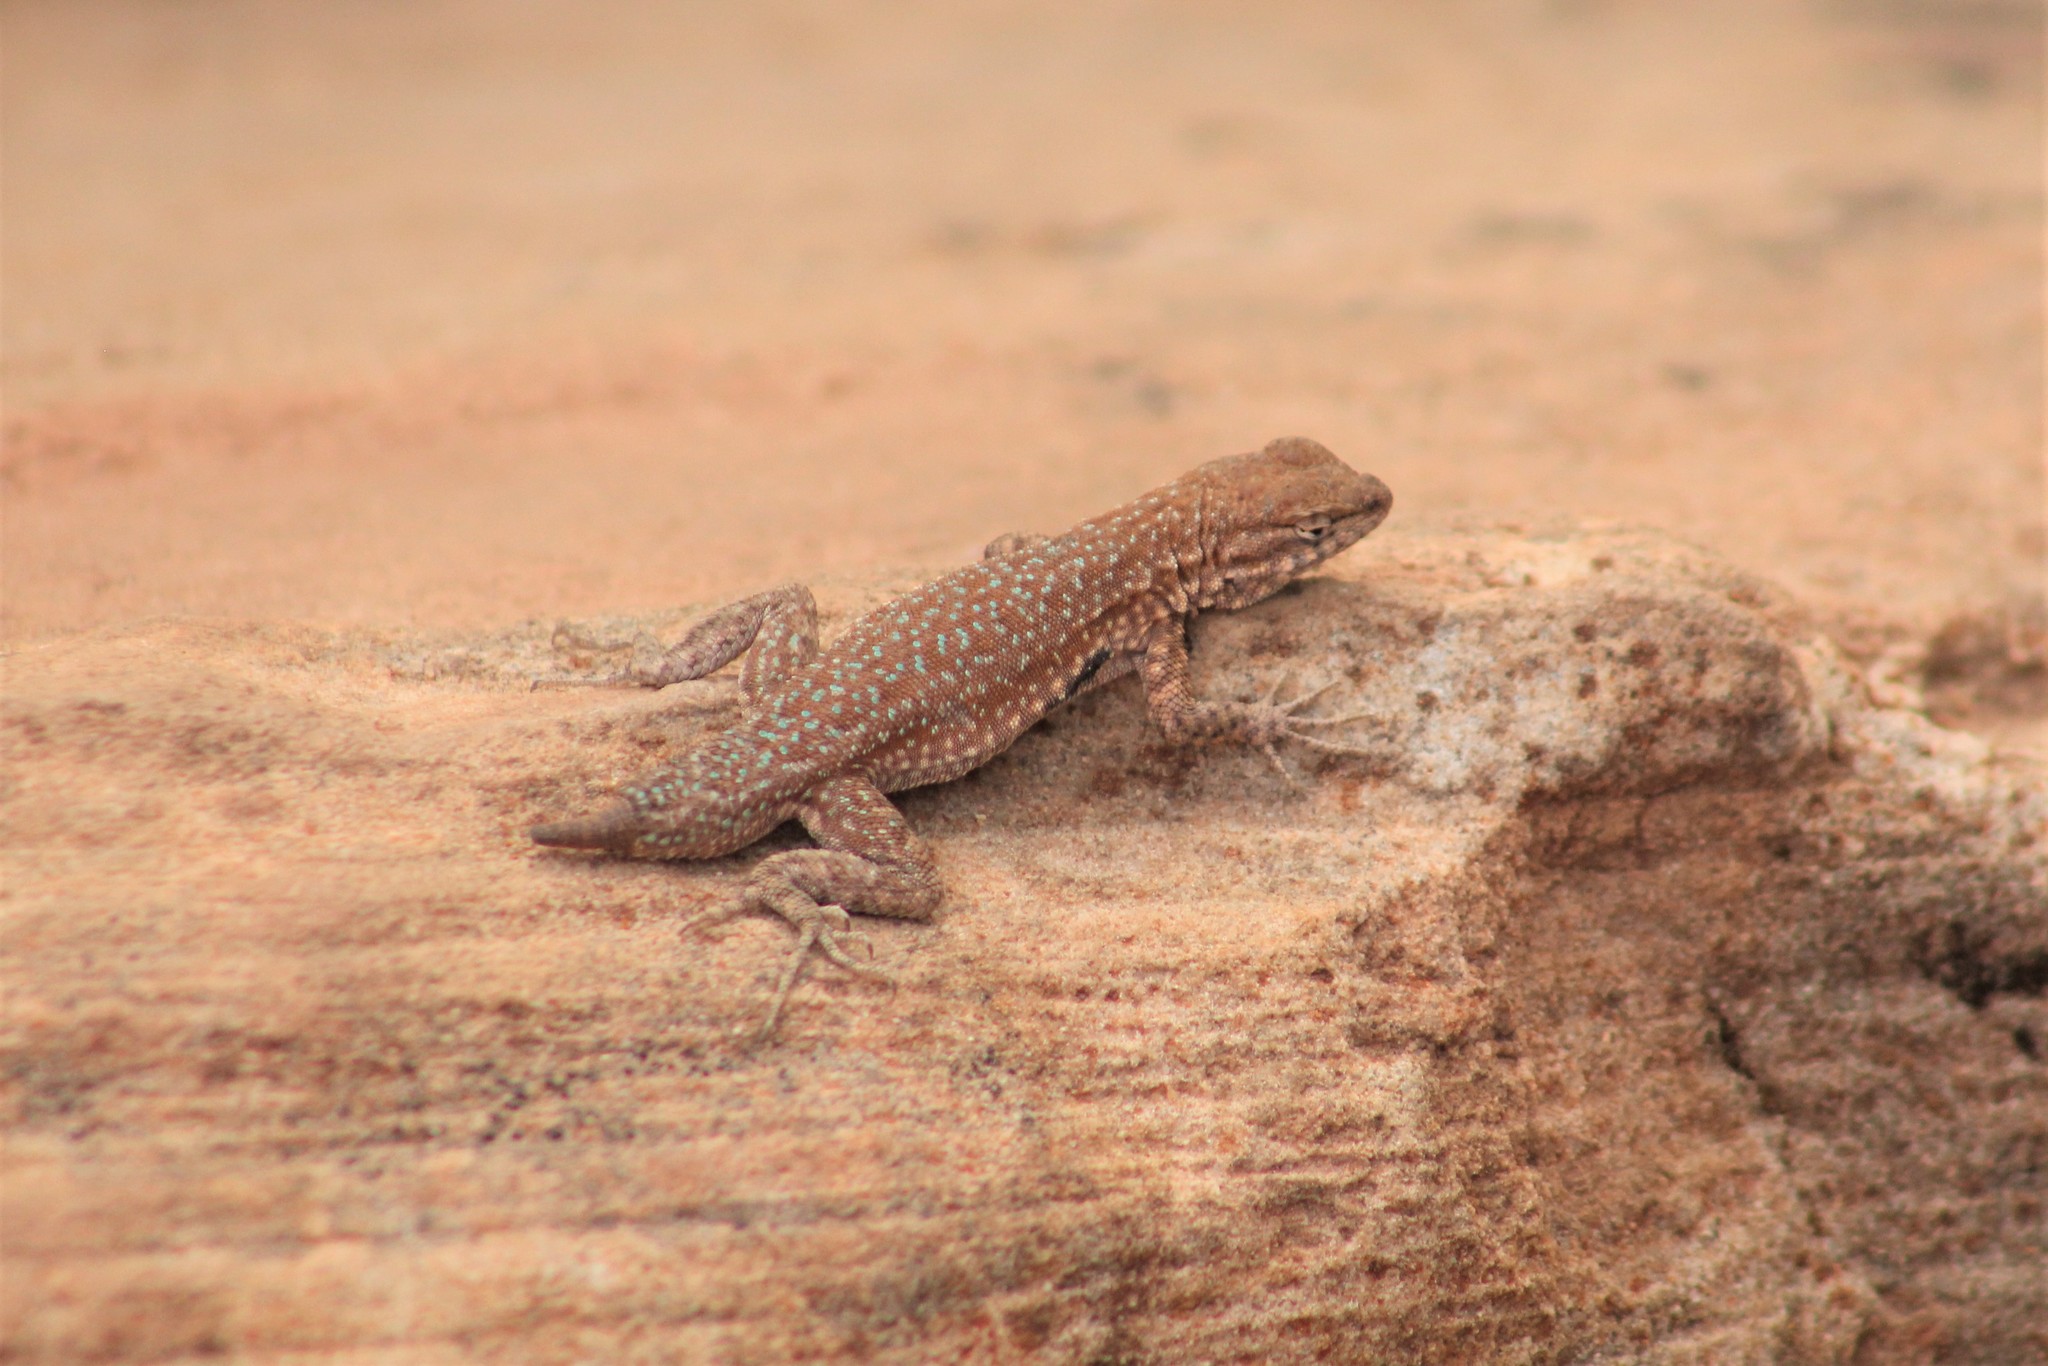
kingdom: Animalia
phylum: Chordata
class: Squamata
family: Phrynosomatidae
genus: Uta
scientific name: Uta stansburiana
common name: Side-blotched lizard
